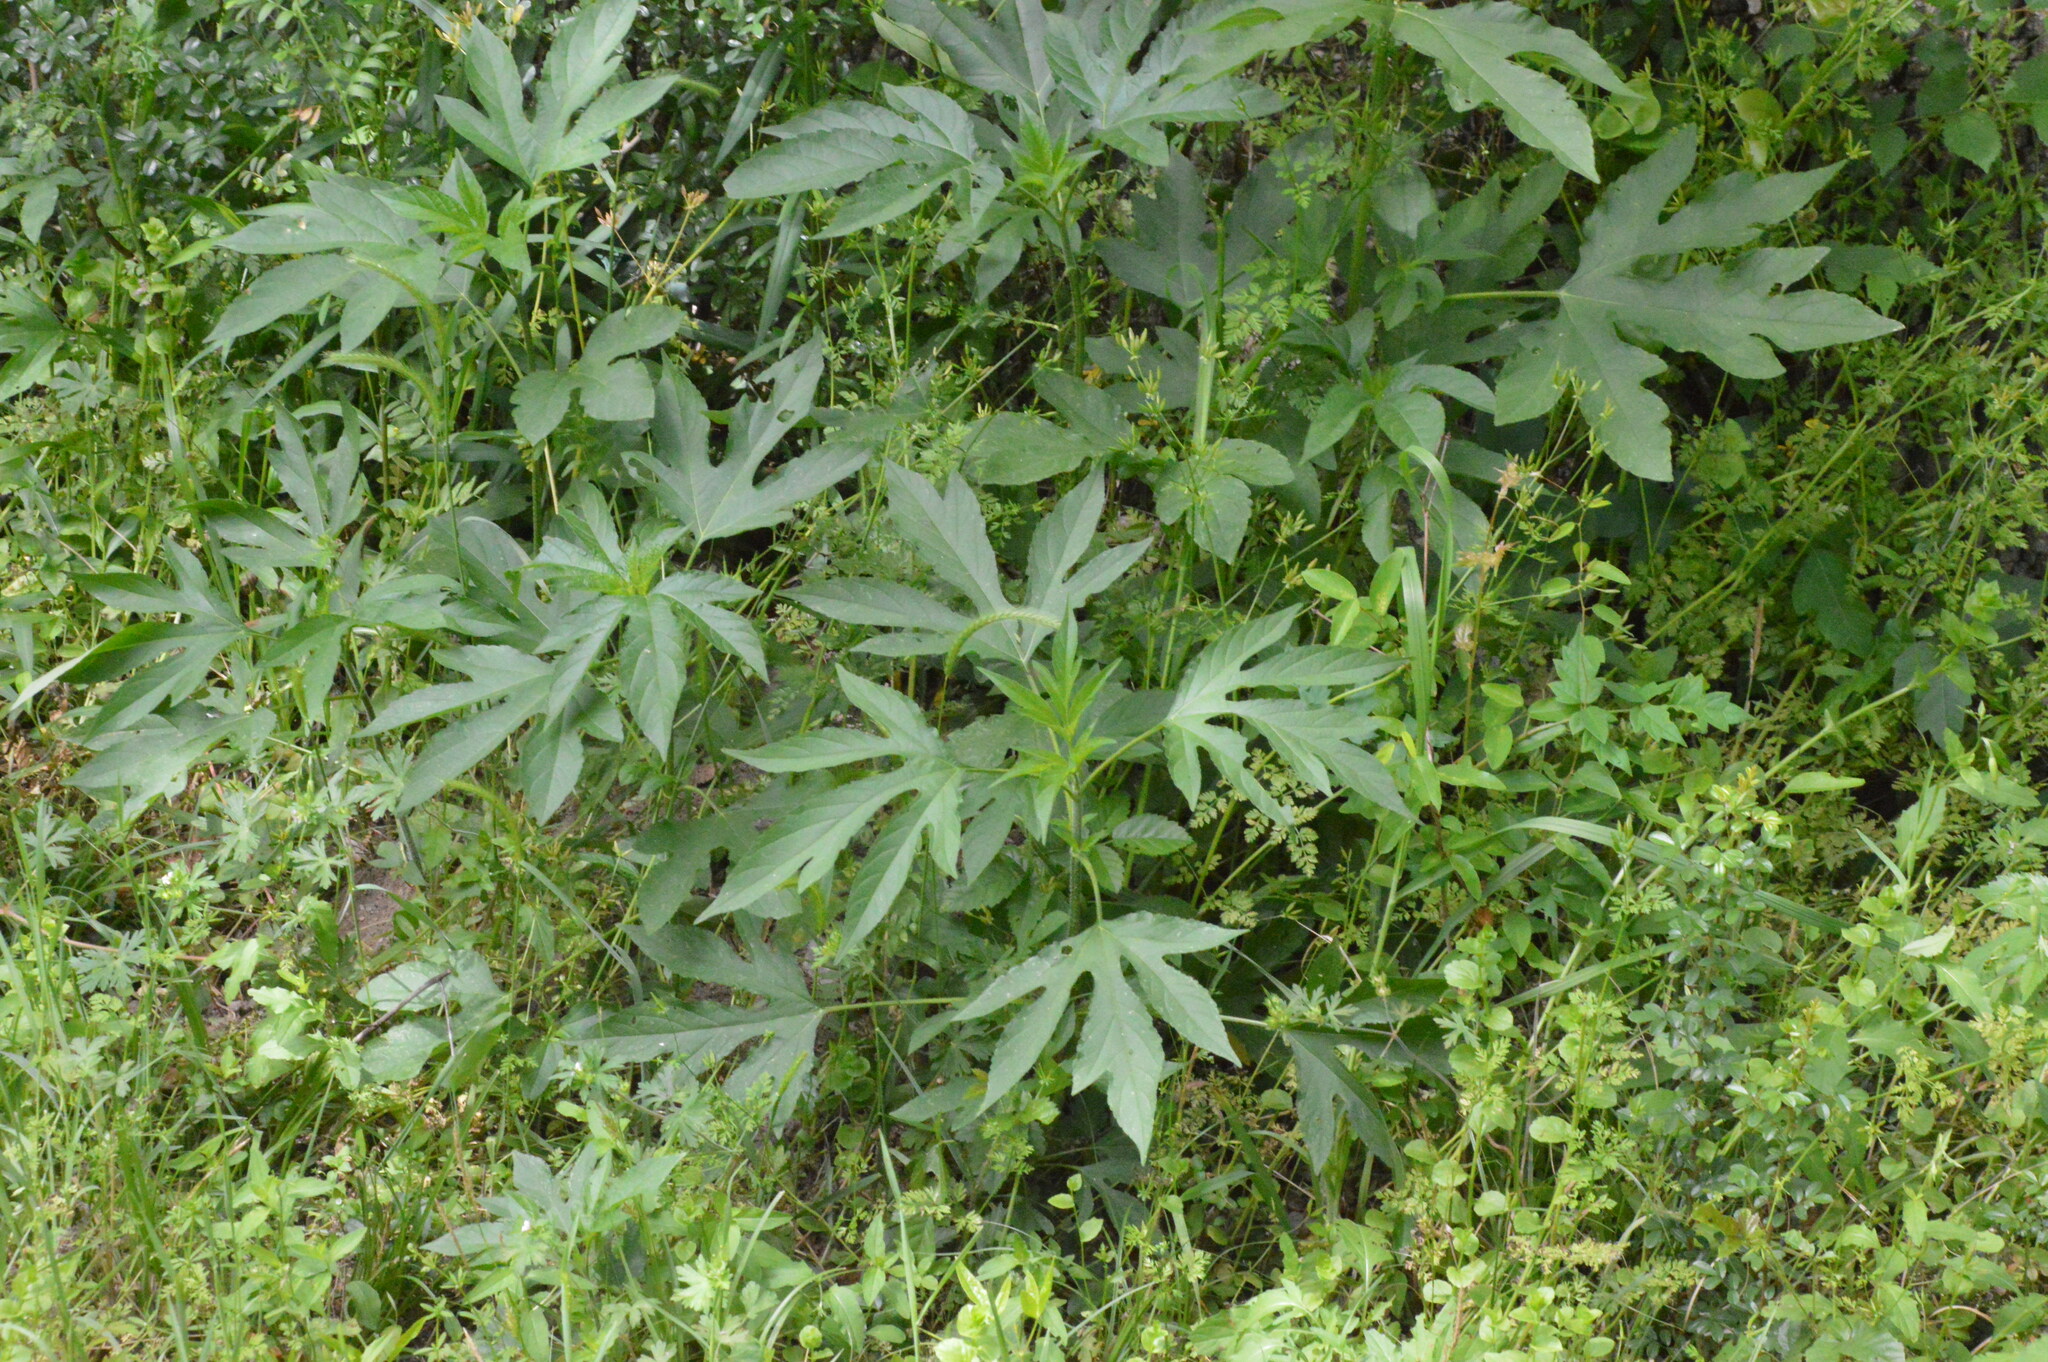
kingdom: Plantae
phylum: Tracheophyta
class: Magnoliopsida
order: Asterales
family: Asteraceae
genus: Ambrosia
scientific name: Ambrosia trifida
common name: Giant ragweed
